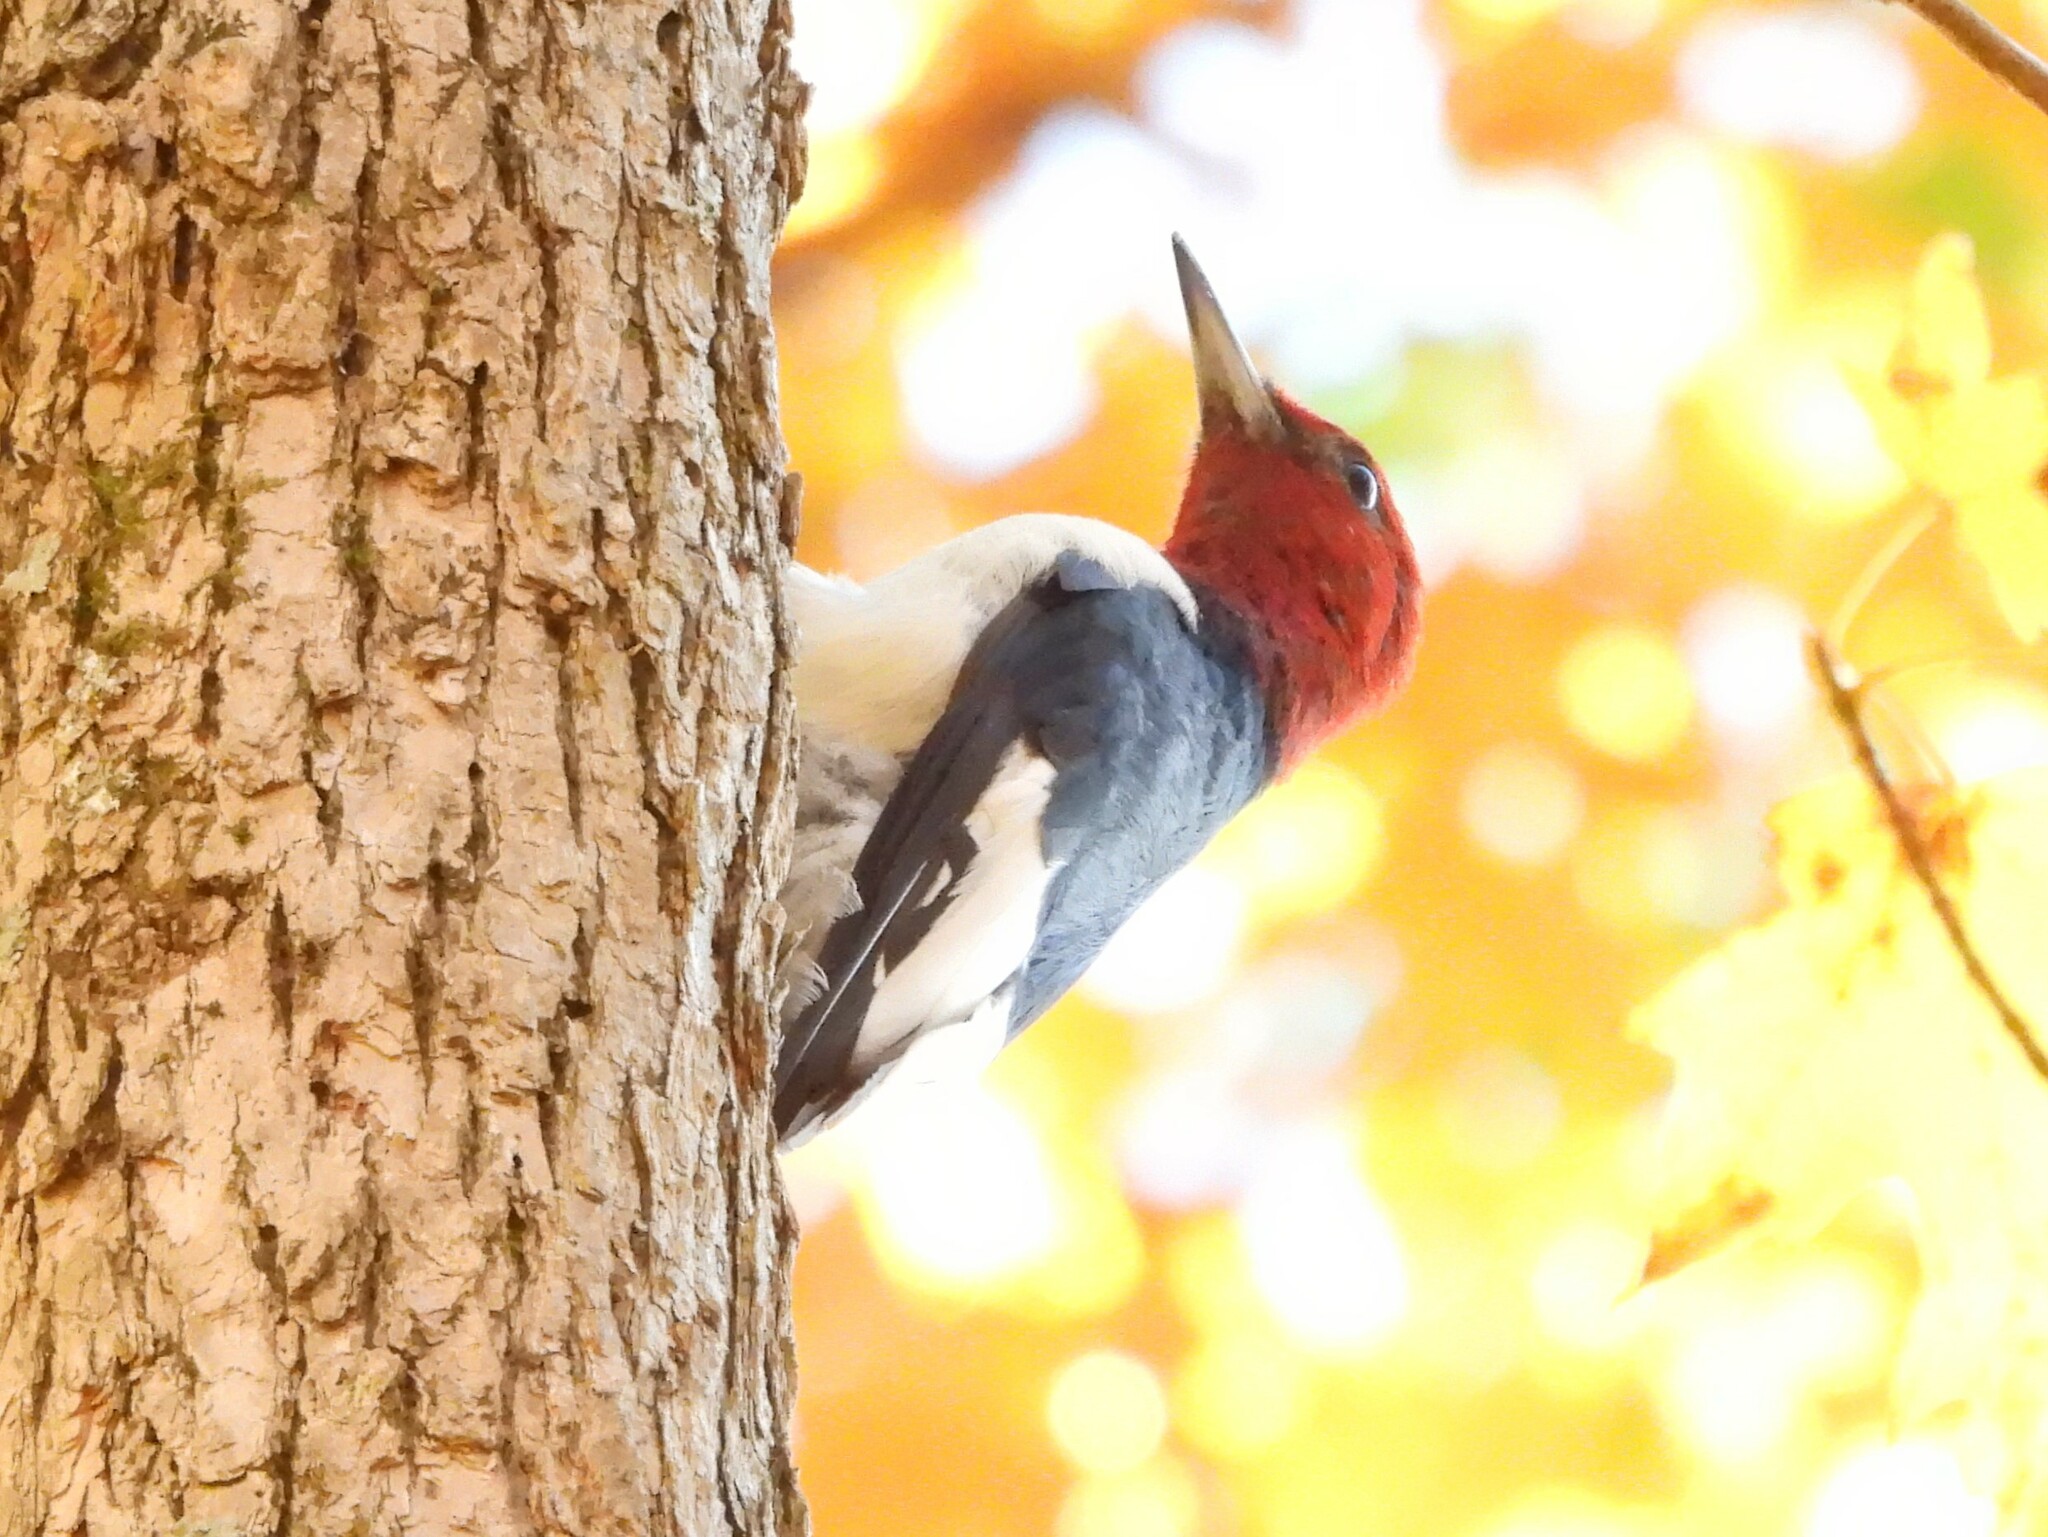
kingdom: Animalia
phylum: Chordata
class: Aves
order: Piciformes
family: Picidae
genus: Melanerpes
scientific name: Melanerpes erythrocephalus
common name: Red-headed woodpecker
